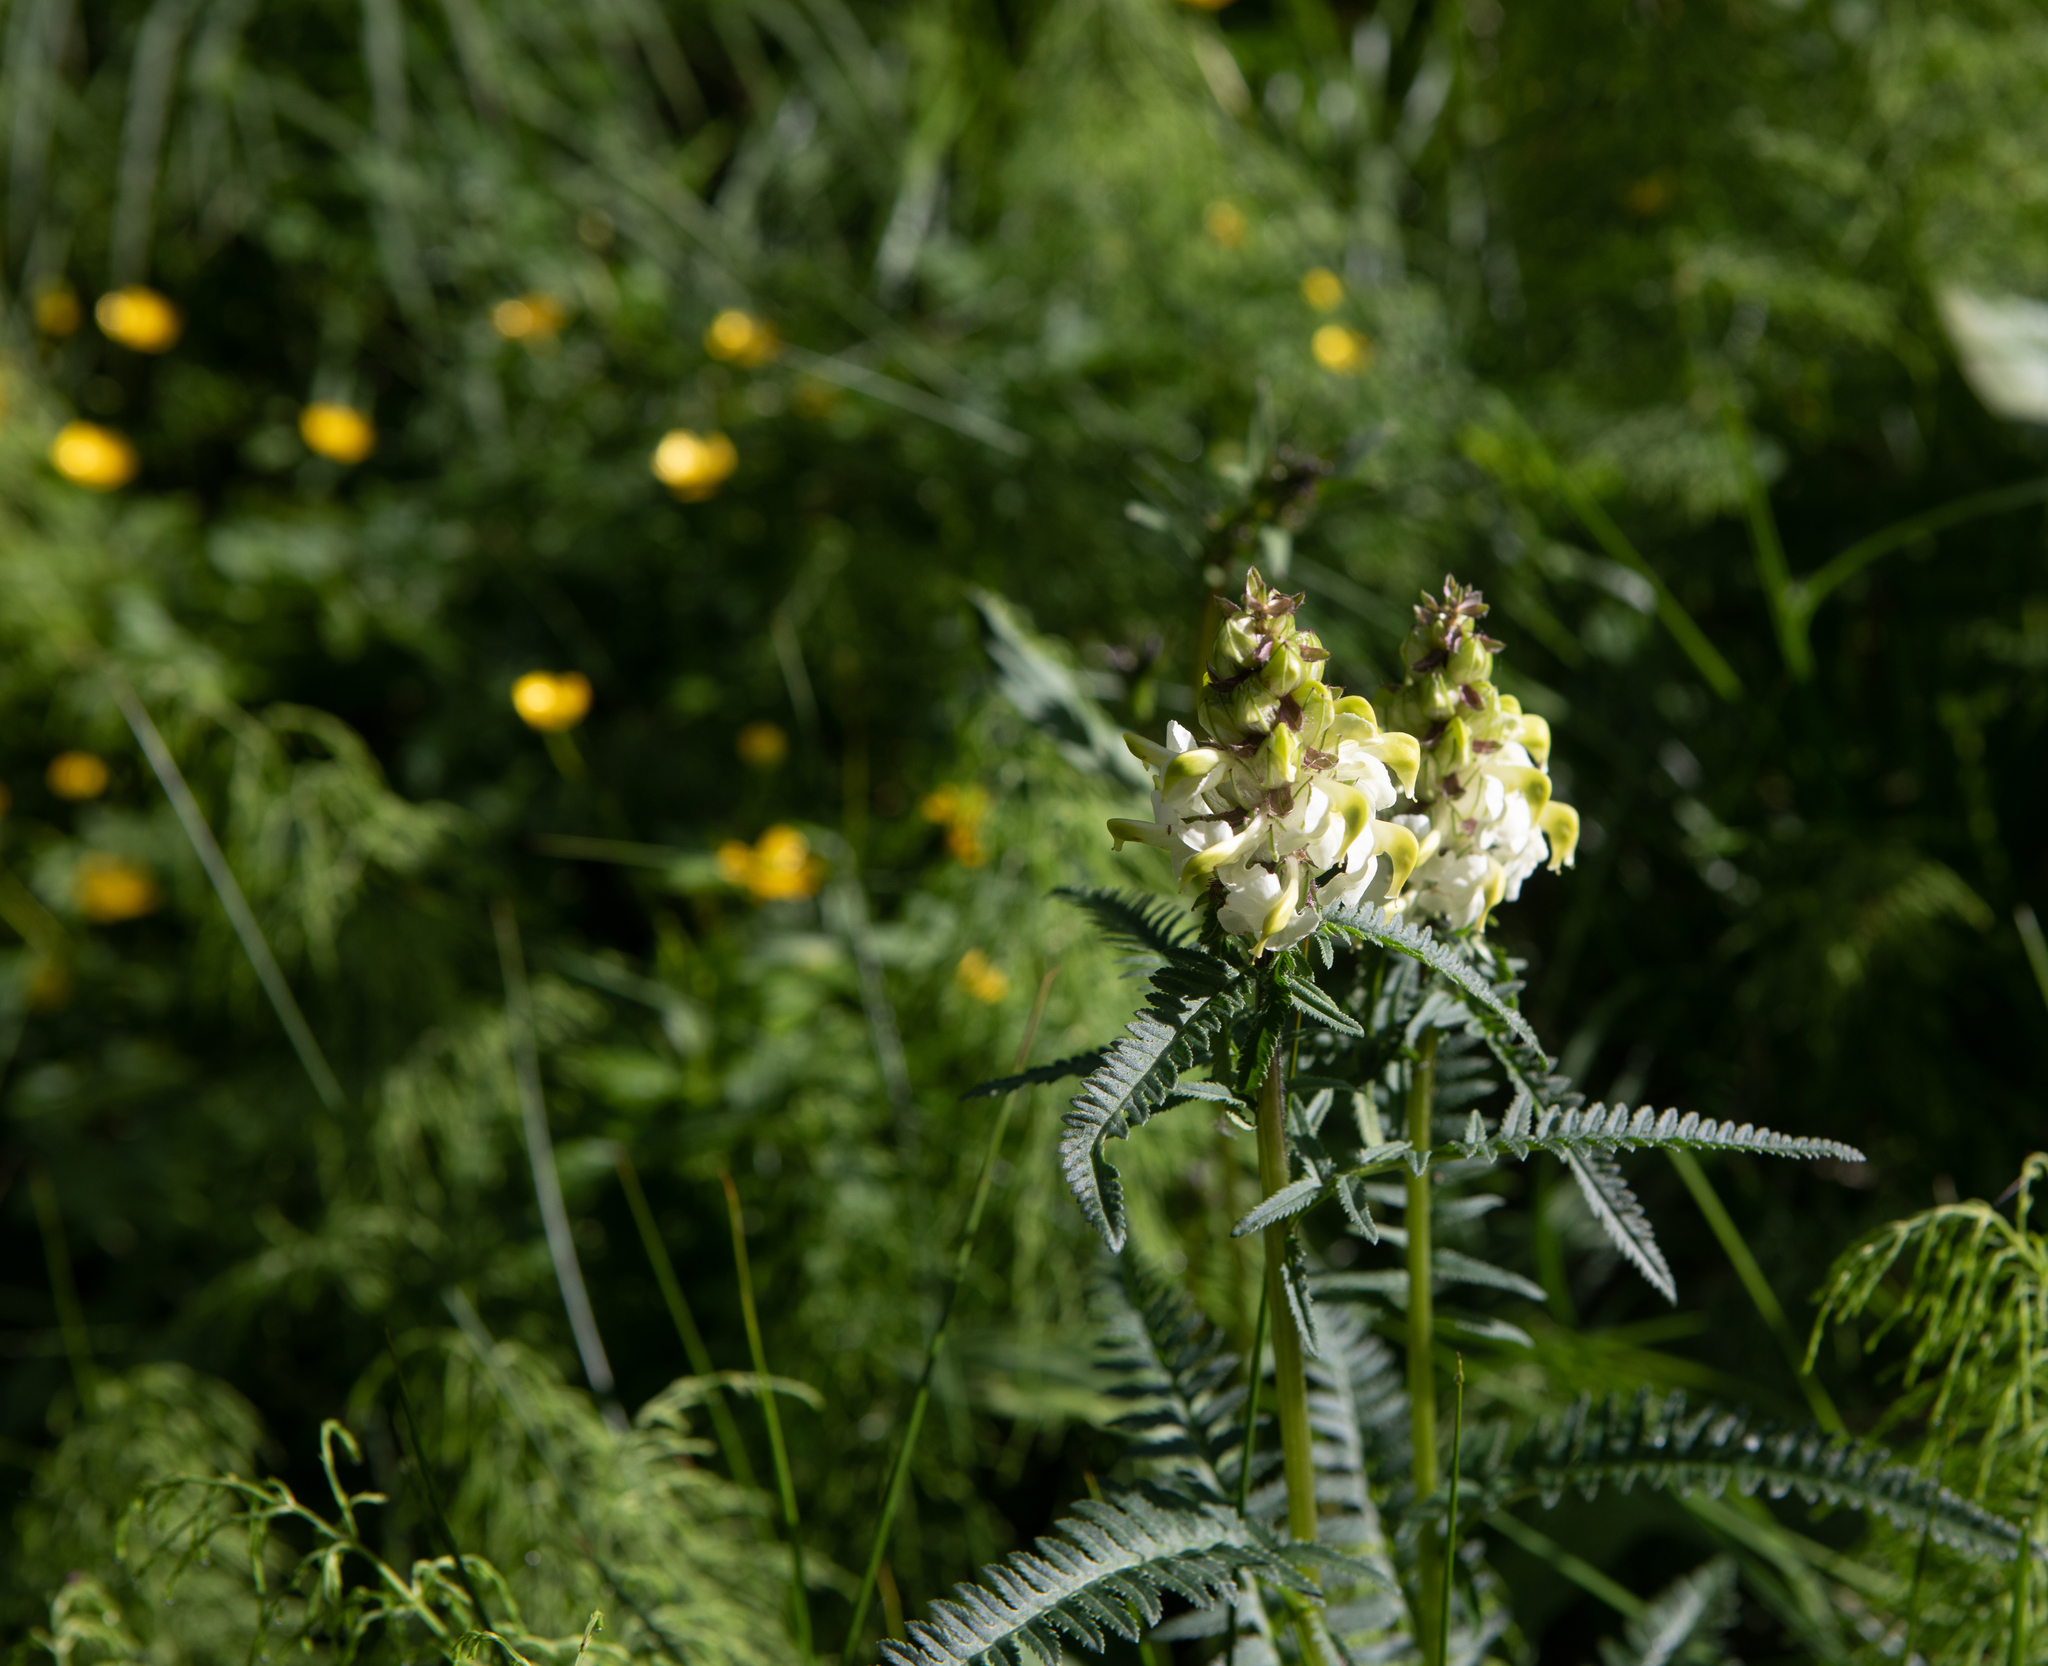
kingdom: Plantae
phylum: Tracheophyta
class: Magnoliopsida
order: Lamiales
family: Orobanchaceae
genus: Pedicularis
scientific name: Pedicularis compacta
